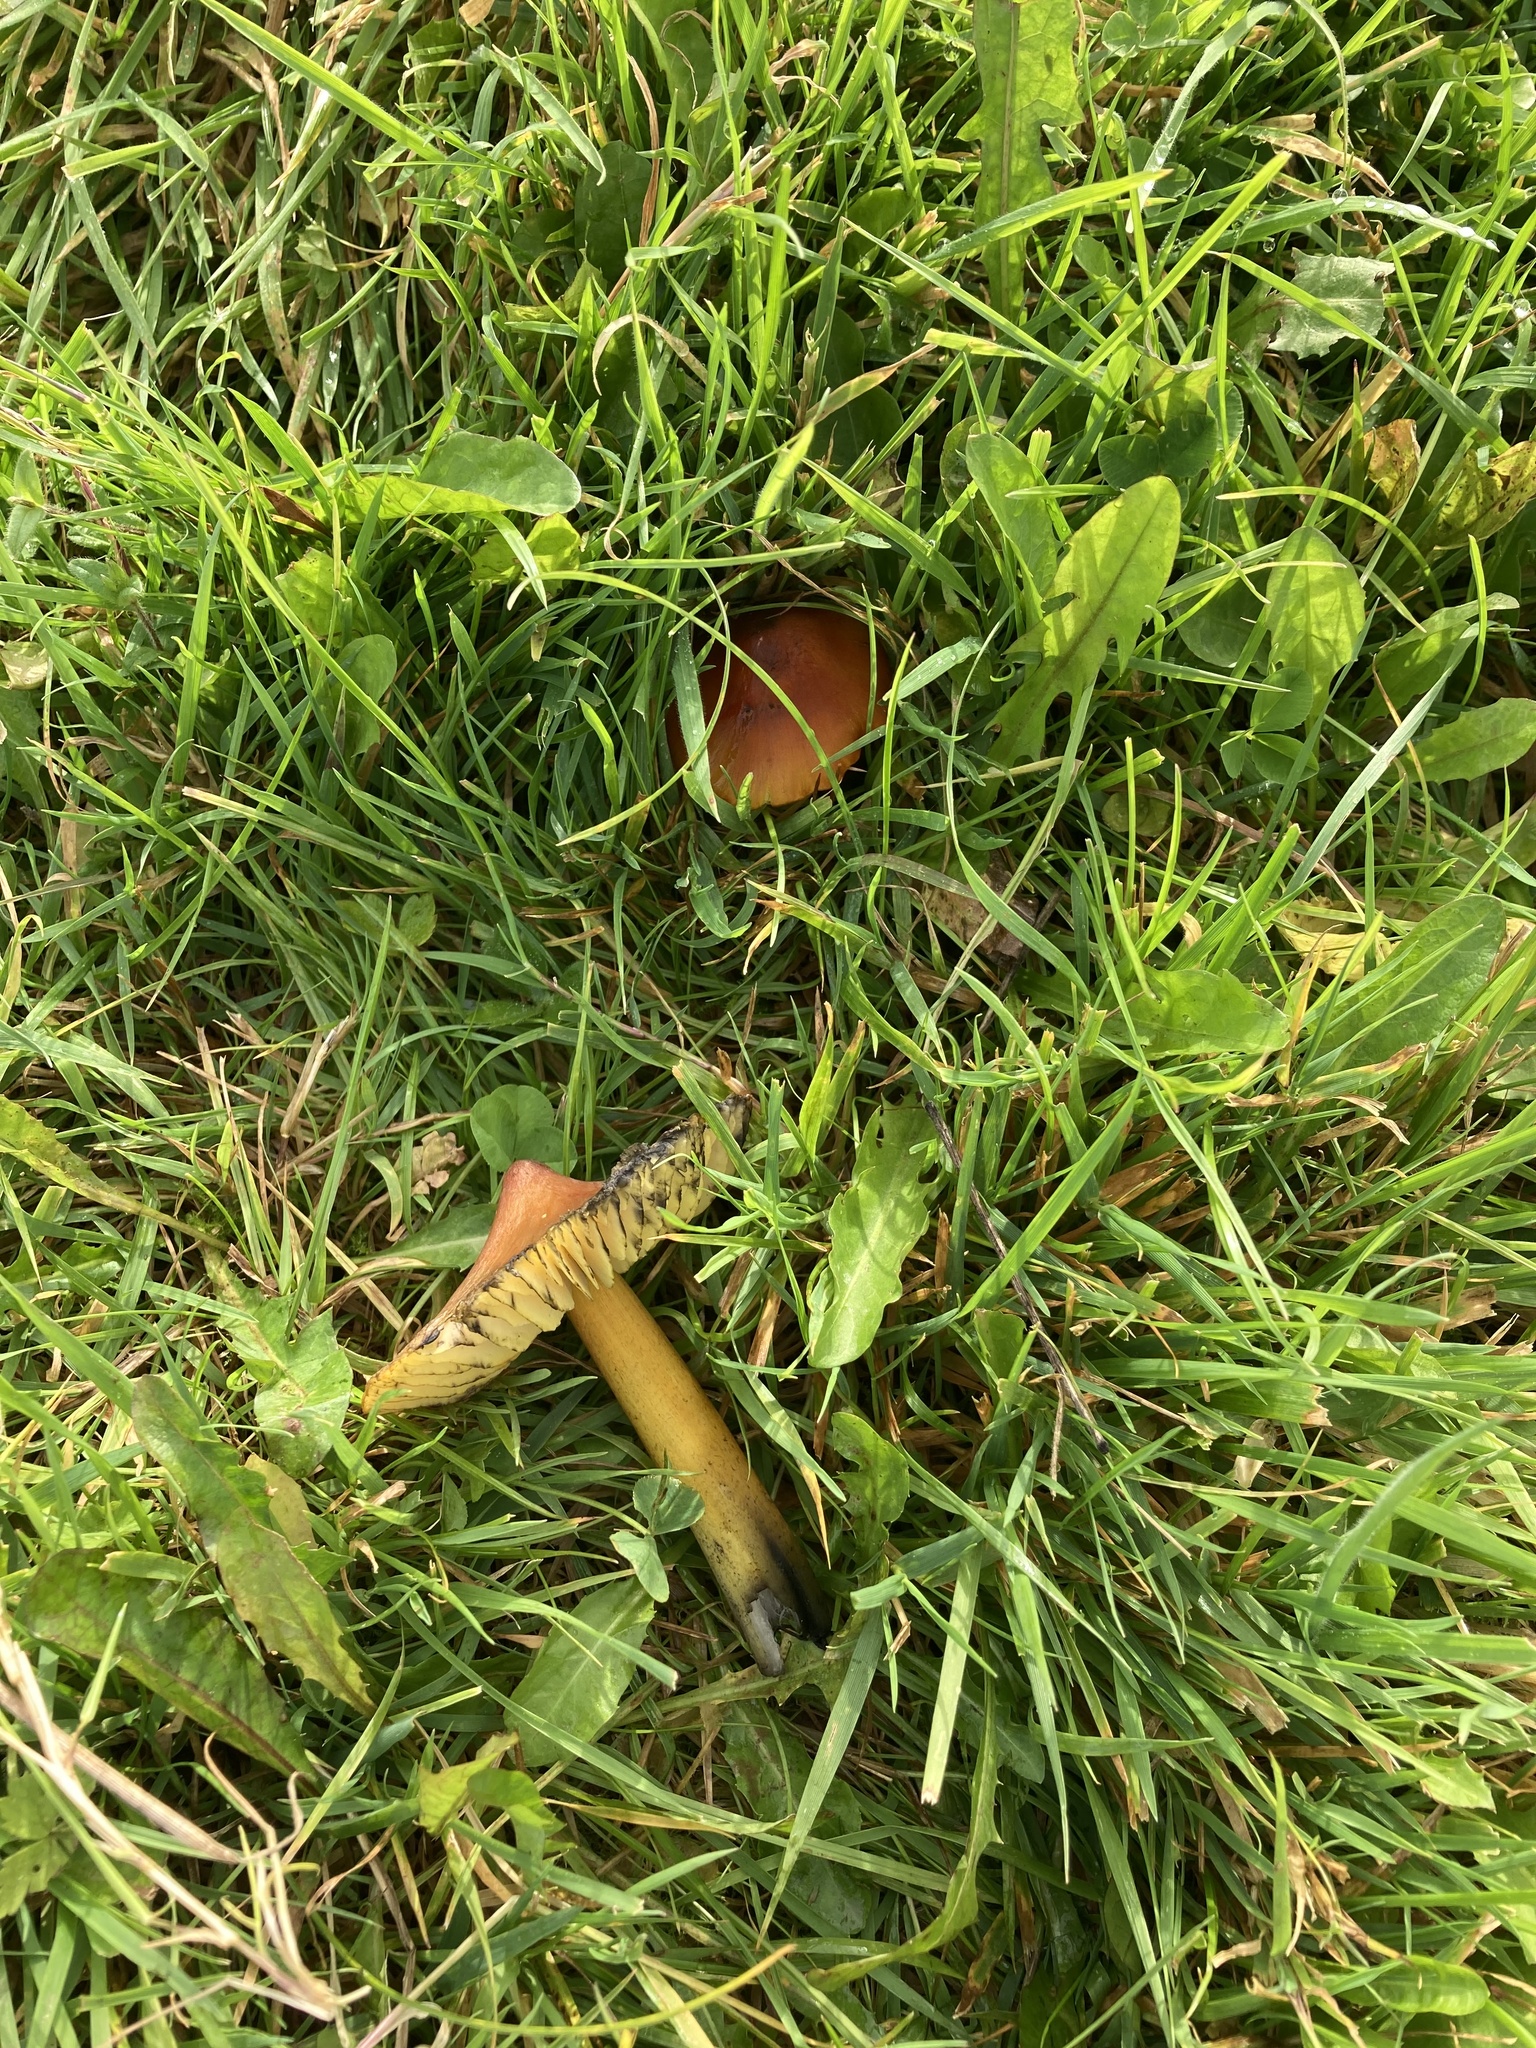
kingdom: Fungi
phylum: Basidiomycota
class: Agaricomycetes
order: Agaricales
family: Hygrophoraceae
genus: Hygrocybe
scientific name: Hygrocybe conica
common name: Blackening wax-cap
